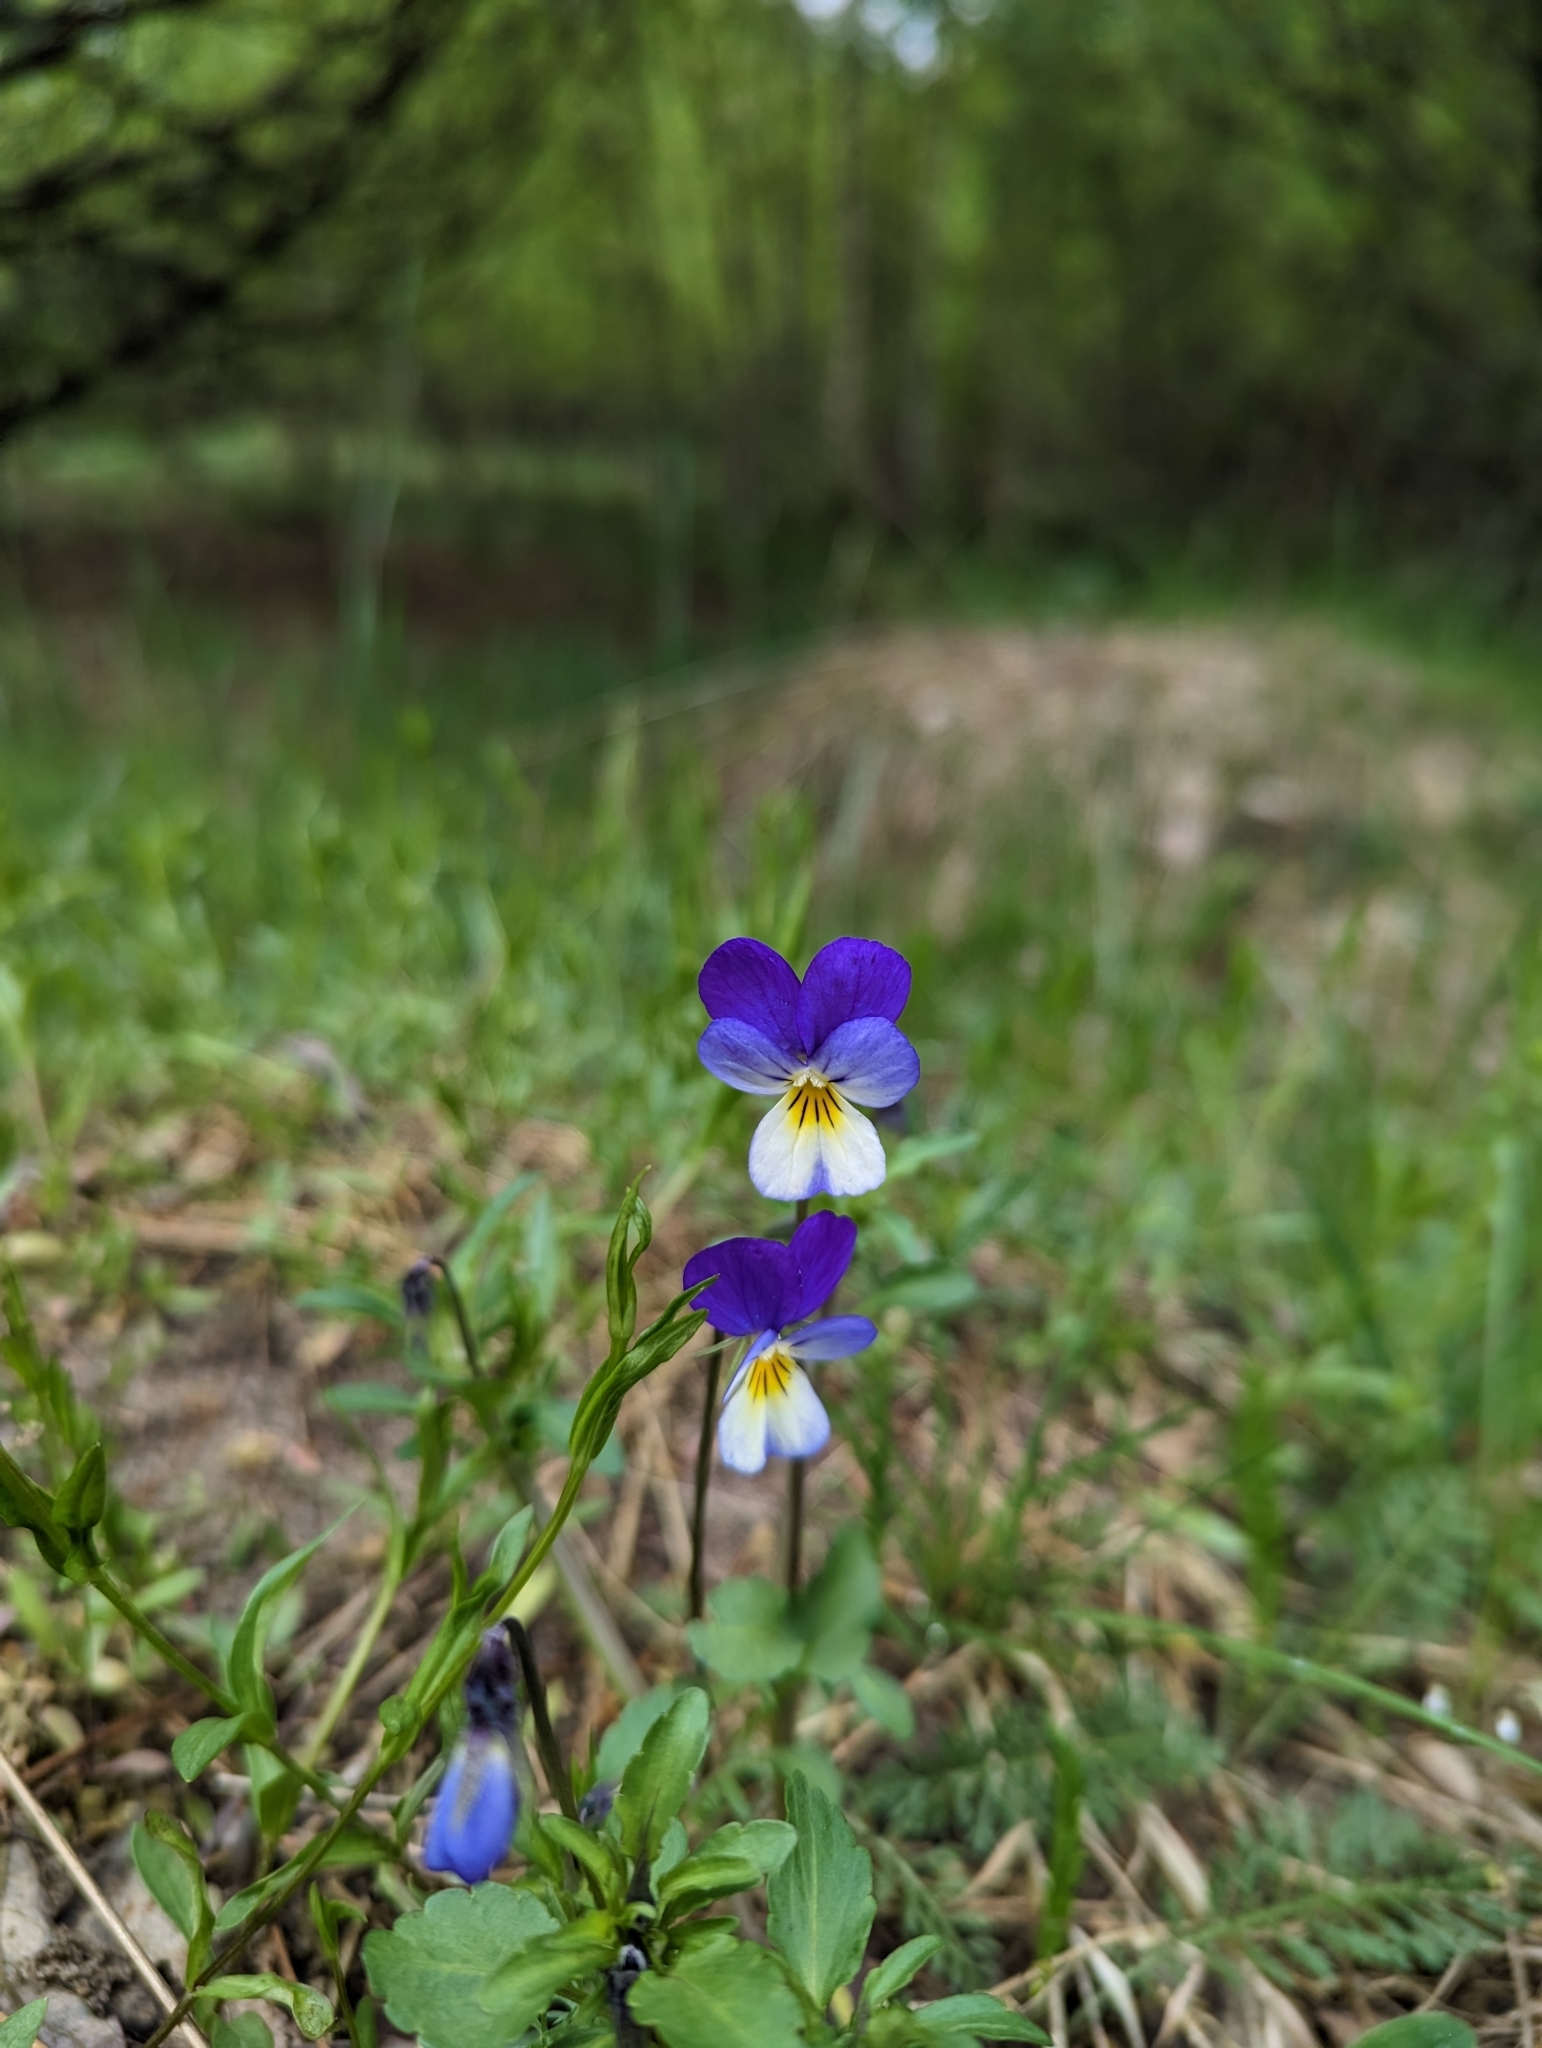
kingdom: Plantae
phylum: Tracheophyta
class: Magnoliopsida
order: Malpighiales
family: Violaceae
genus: Viola
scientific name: Viola tricolor
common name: Pansy
